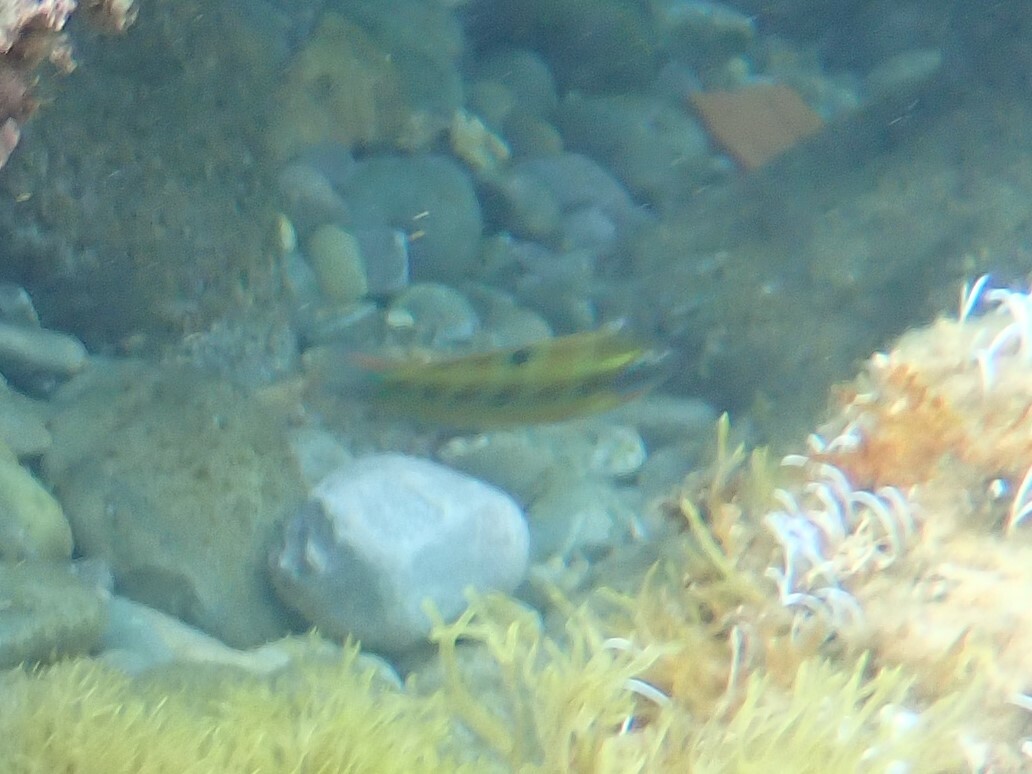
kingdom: Animalia
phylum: Chordata
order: Perciformes
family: Labridae
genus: Thalassoma
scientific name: Thalassoma pavo
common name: Ornate wrasse
